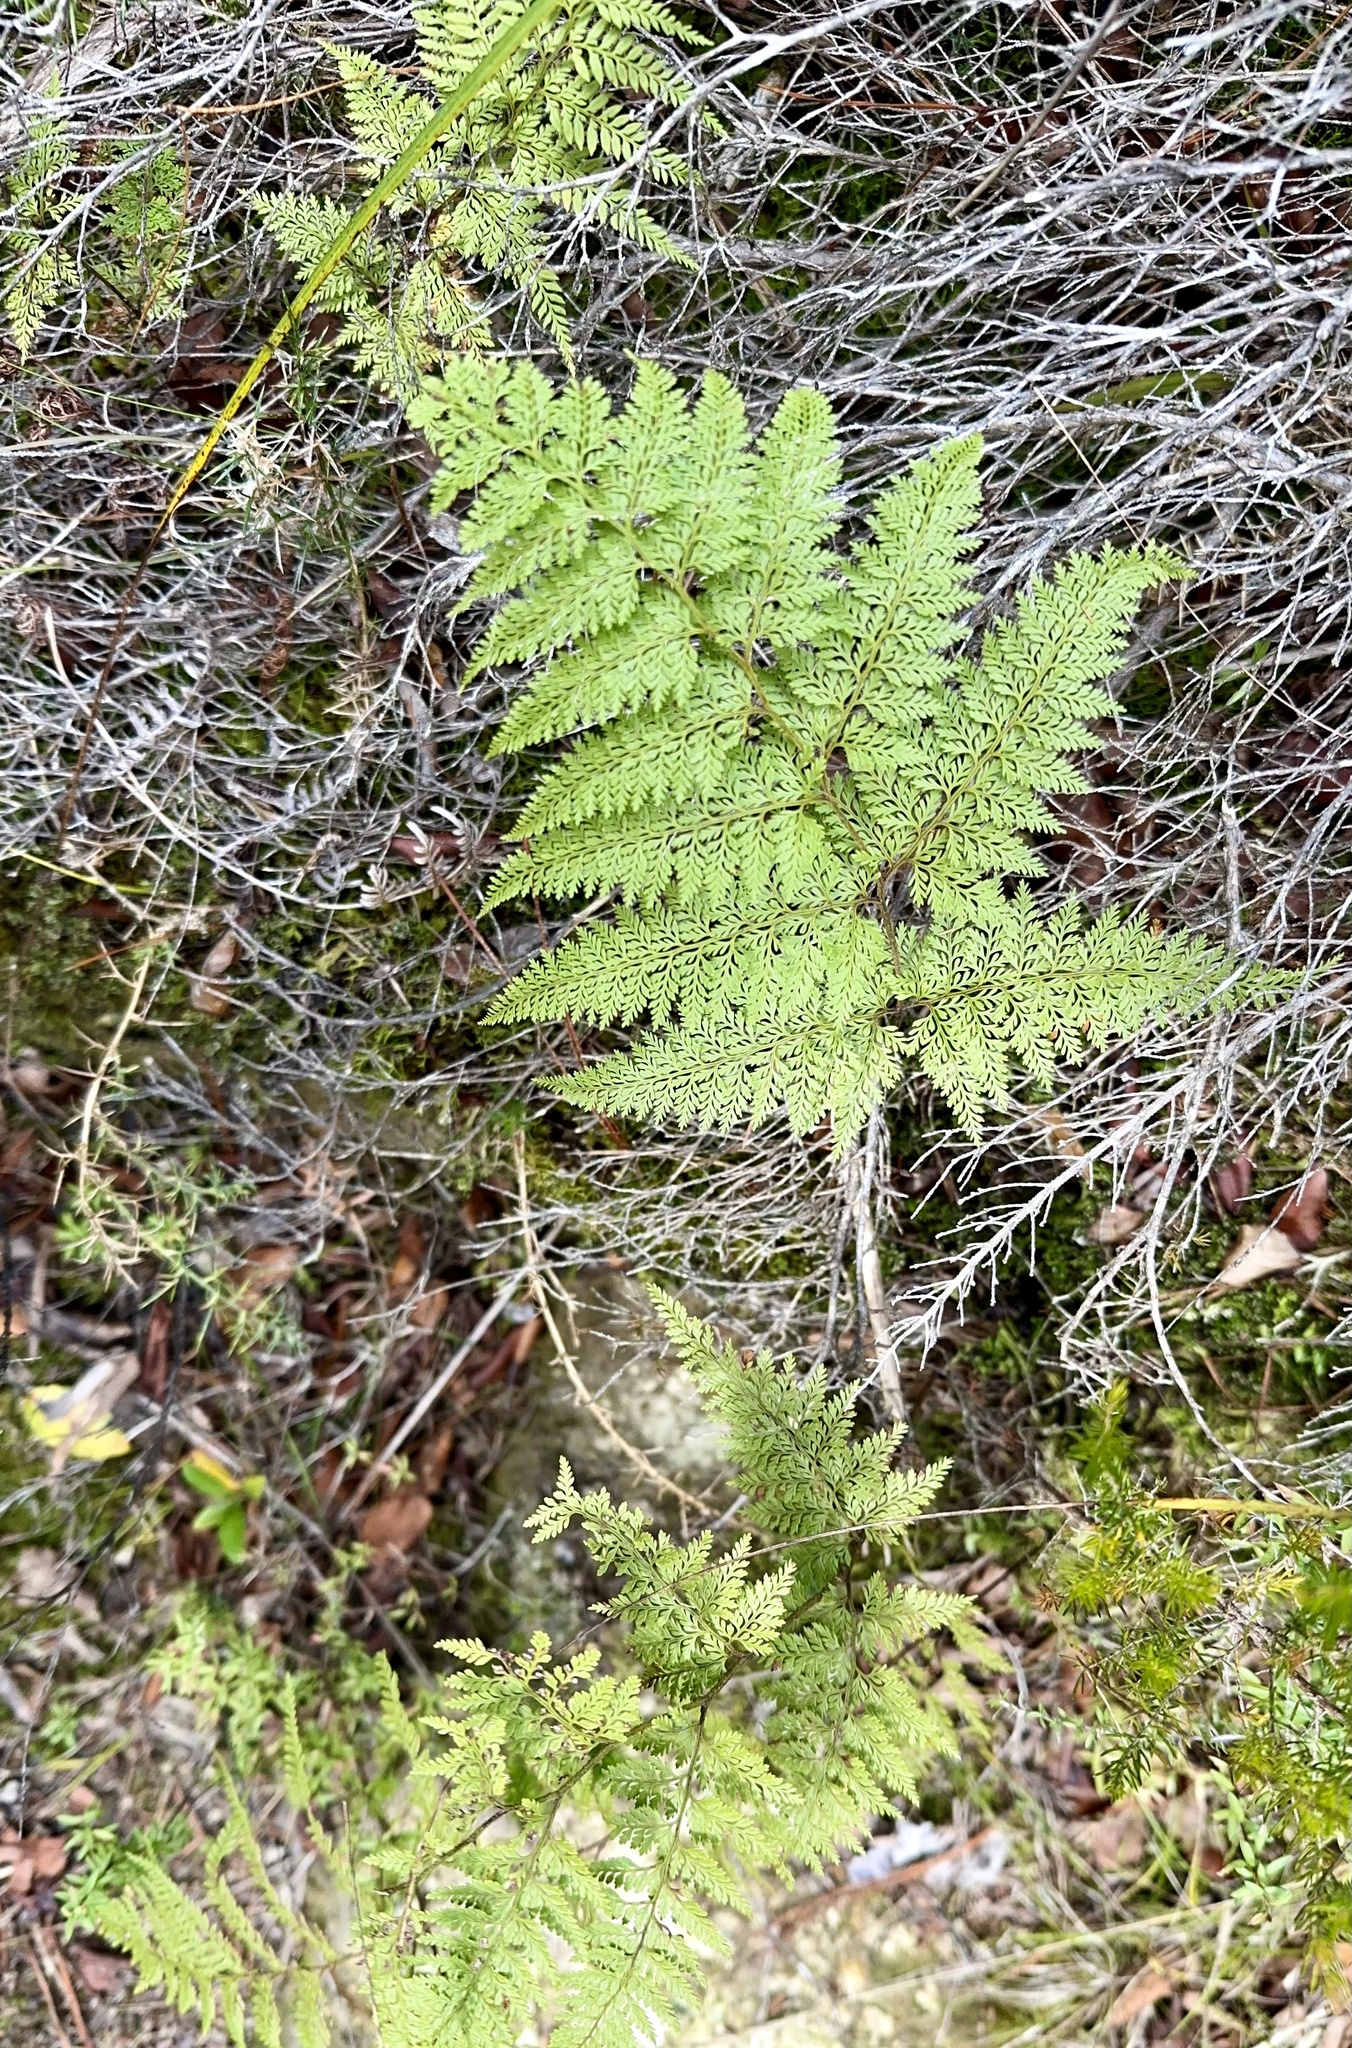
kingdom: Plantae
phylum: Tracheophyta
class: Polypodiopsida
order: Polypodiales
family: Dennstaedtiaceae
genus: Paesia
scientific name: Paesia scaberula
